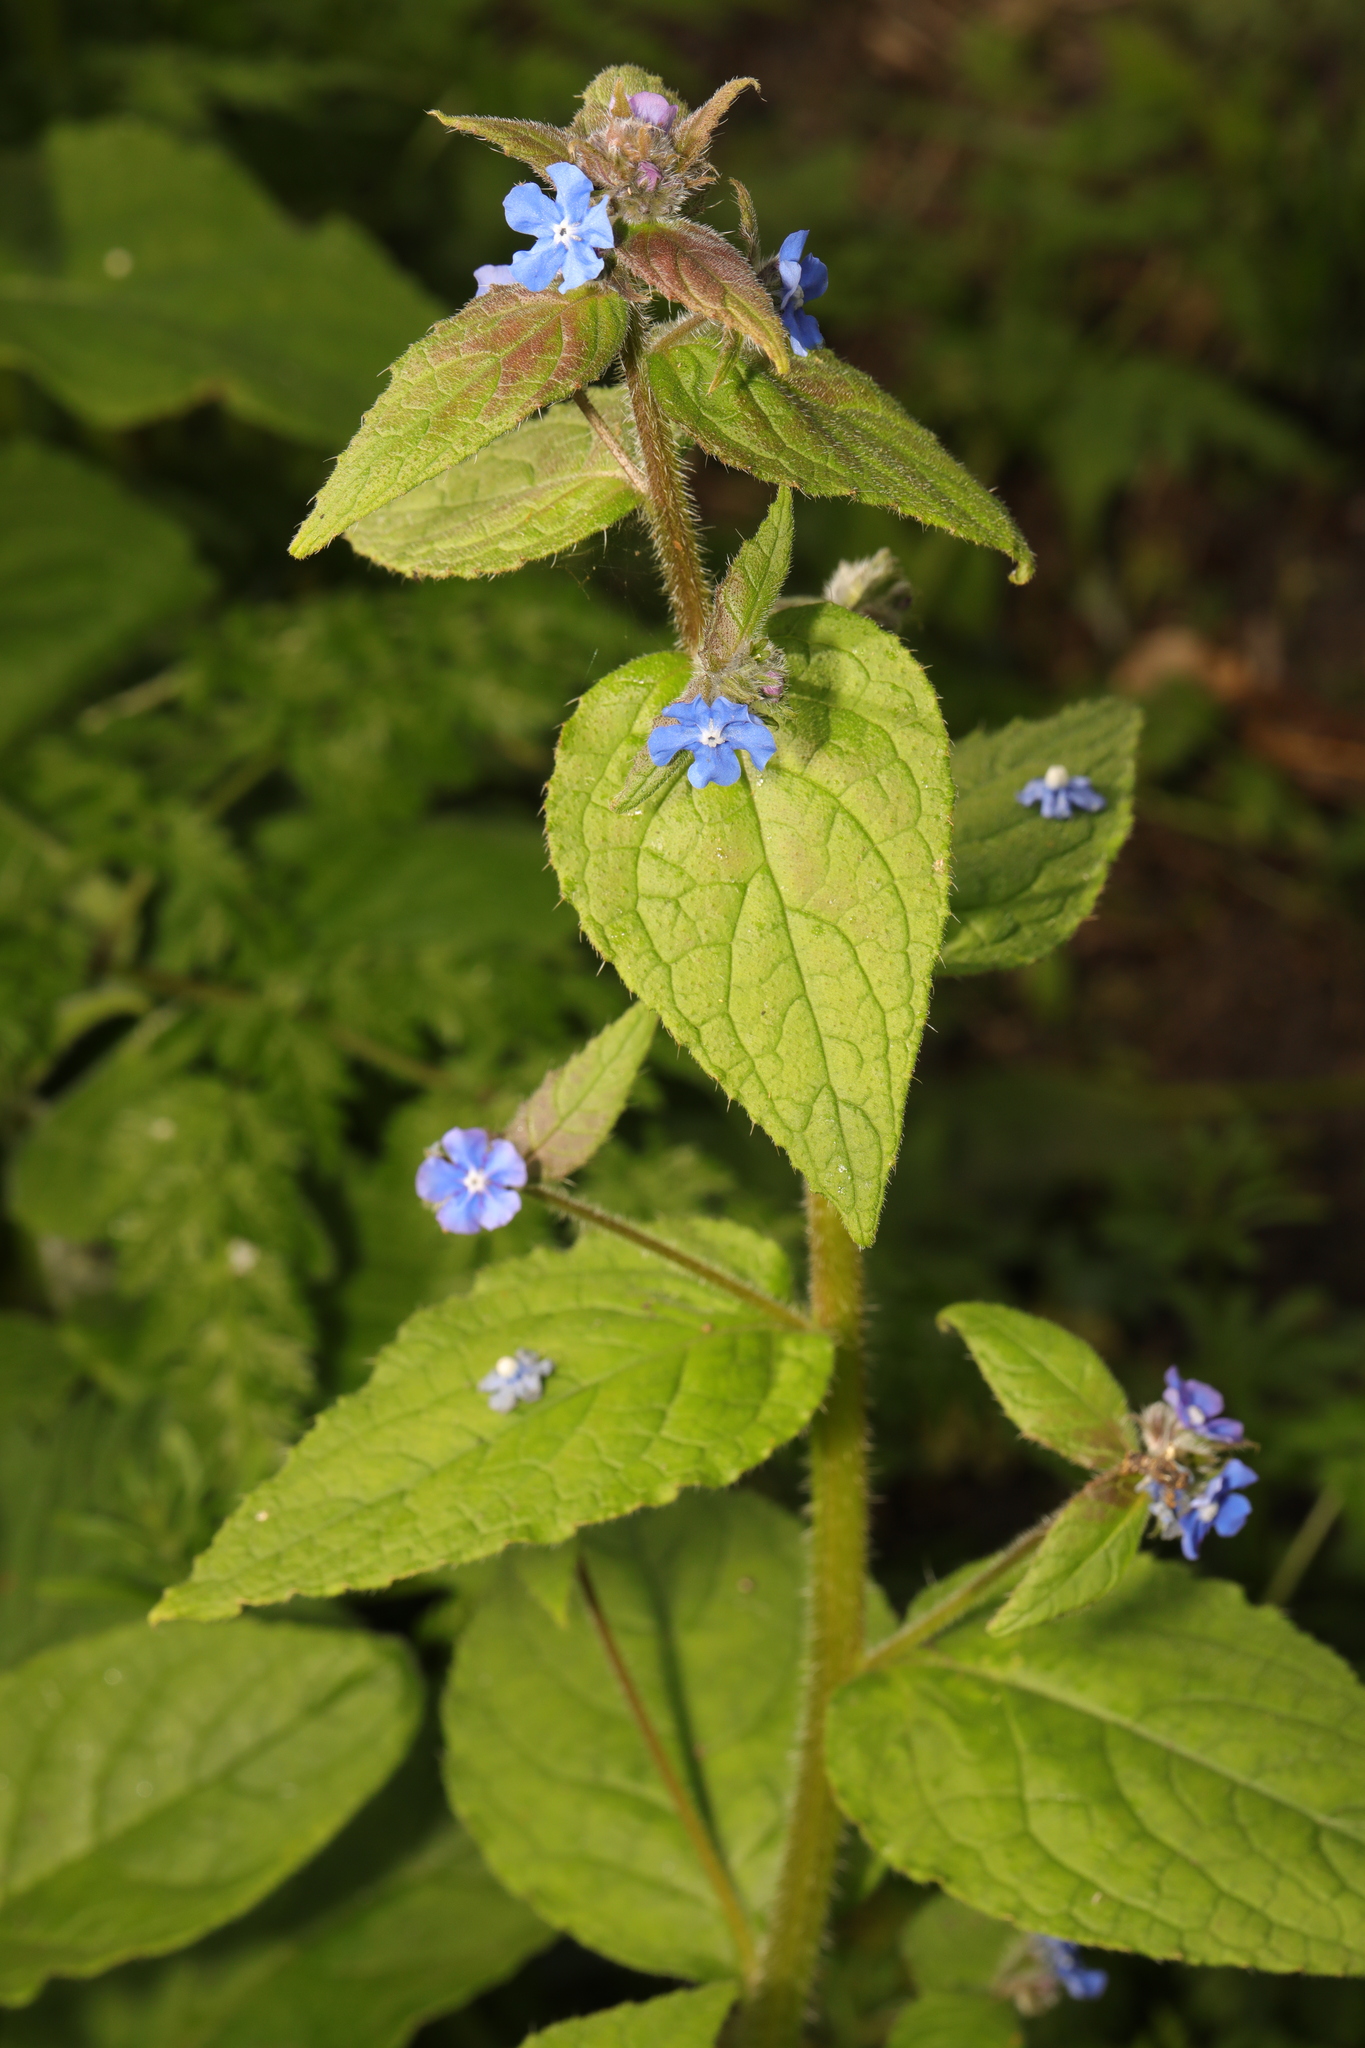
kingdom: Plantae
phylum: Tracheophyta
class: Magnoliopsida
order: Boraginales
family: Boraginaceae
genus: Pentaglottis
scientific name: Pentaglottis sempervirens
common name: Green alkanet
